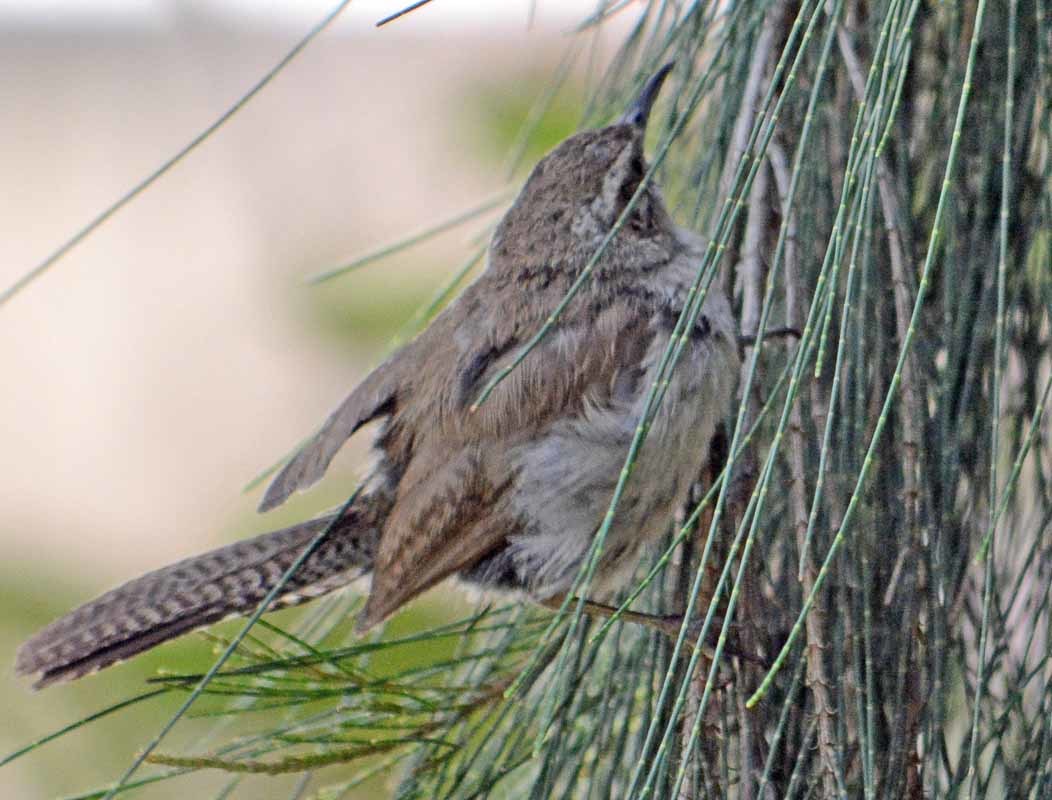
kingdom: Animalia
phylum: Chordata
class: Aves
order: Passeriformes
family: Troglodytidae
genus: Thryomanes
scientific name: Thryomanes bewickii
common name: Bewick's wren
